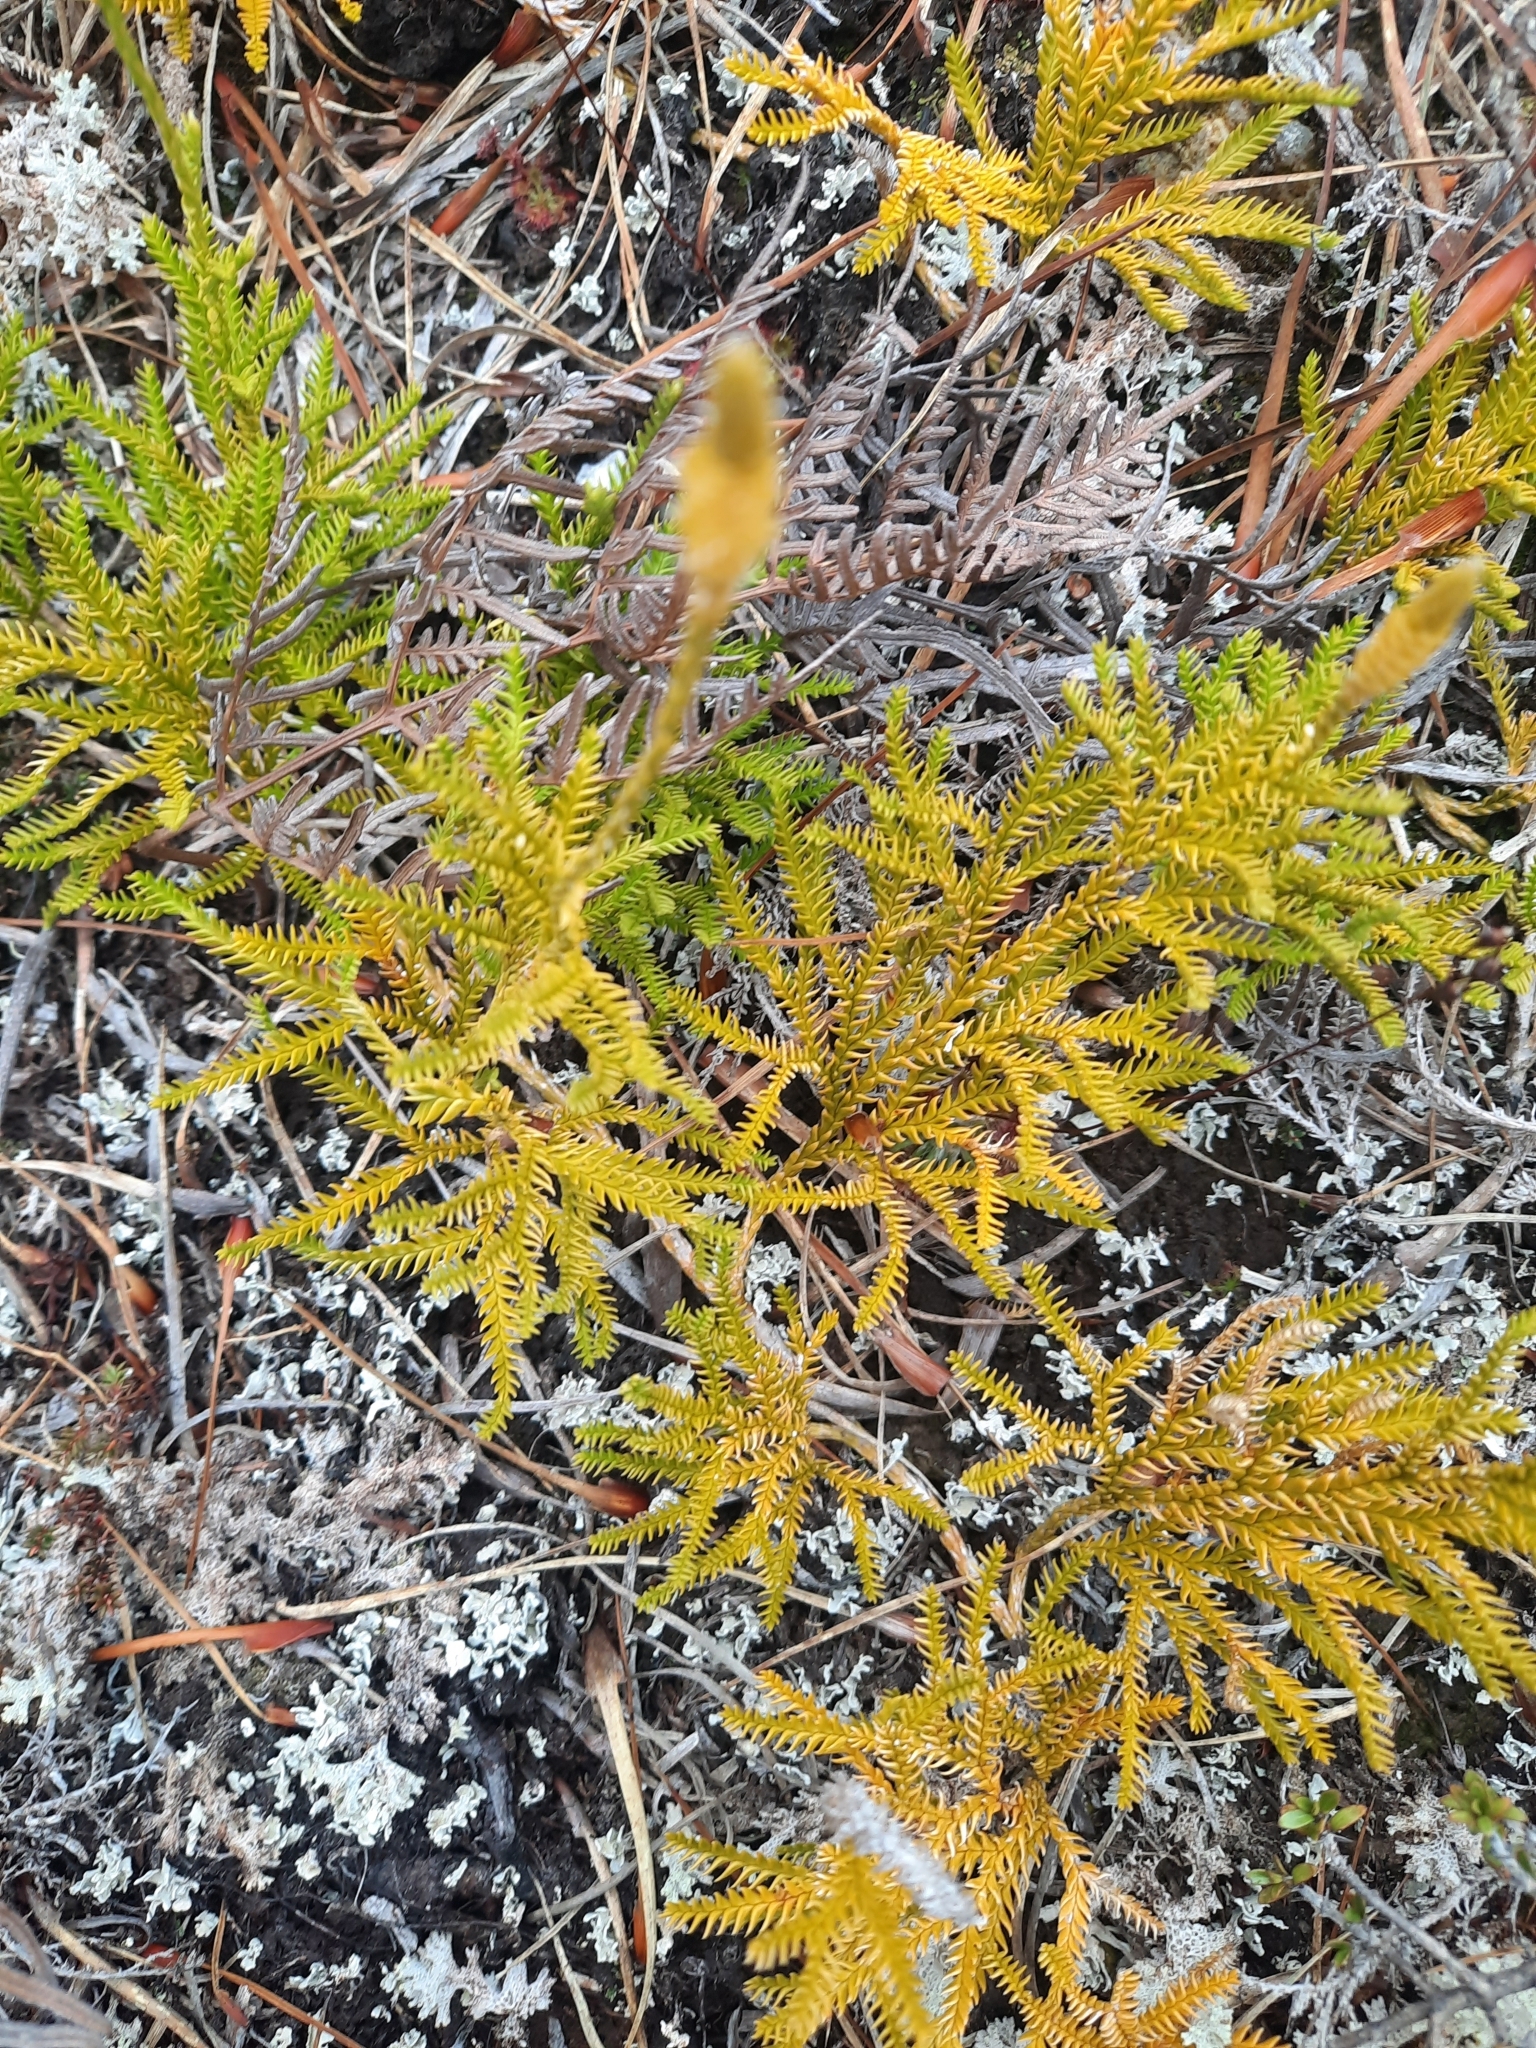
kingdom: Plantae
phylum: Tracheophyta
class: Lycopodiopsida
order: Lycopodiales
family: Lycopodiaceae
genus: Diphasium
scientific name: Diphasium scariosum
